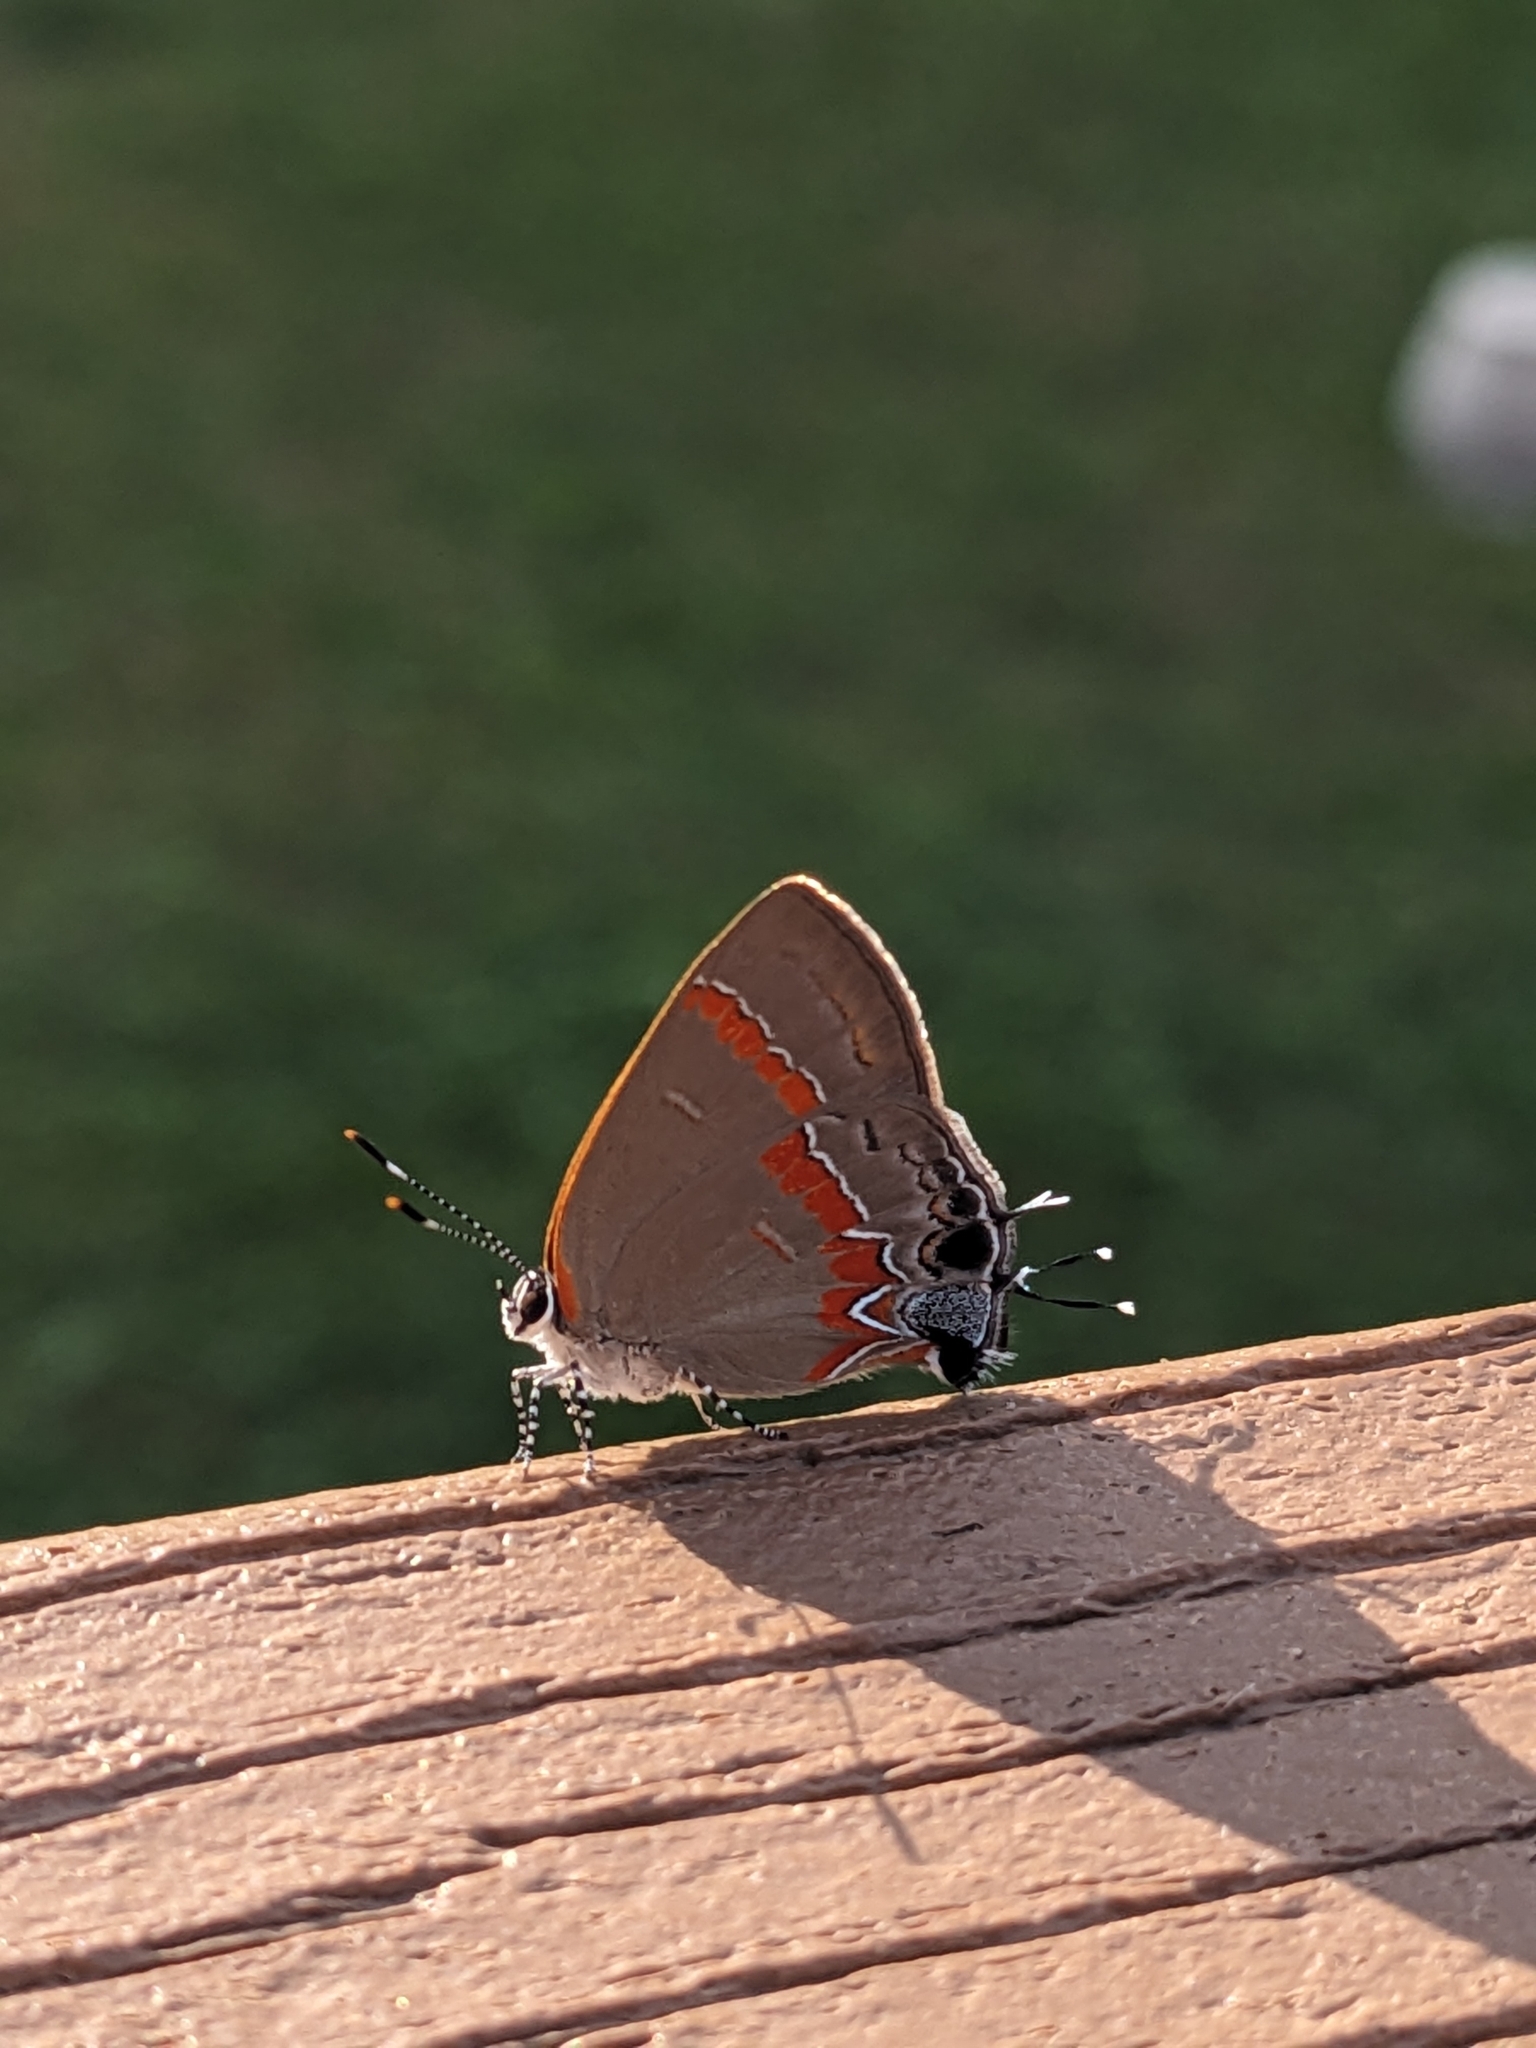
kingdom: Animalia
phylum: Arthropoda
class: Insecta
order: Lepidoptera
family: Lycaenidae
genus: Calycopis
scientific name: Calycopis cecrops
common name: Red-banded hairstreak
